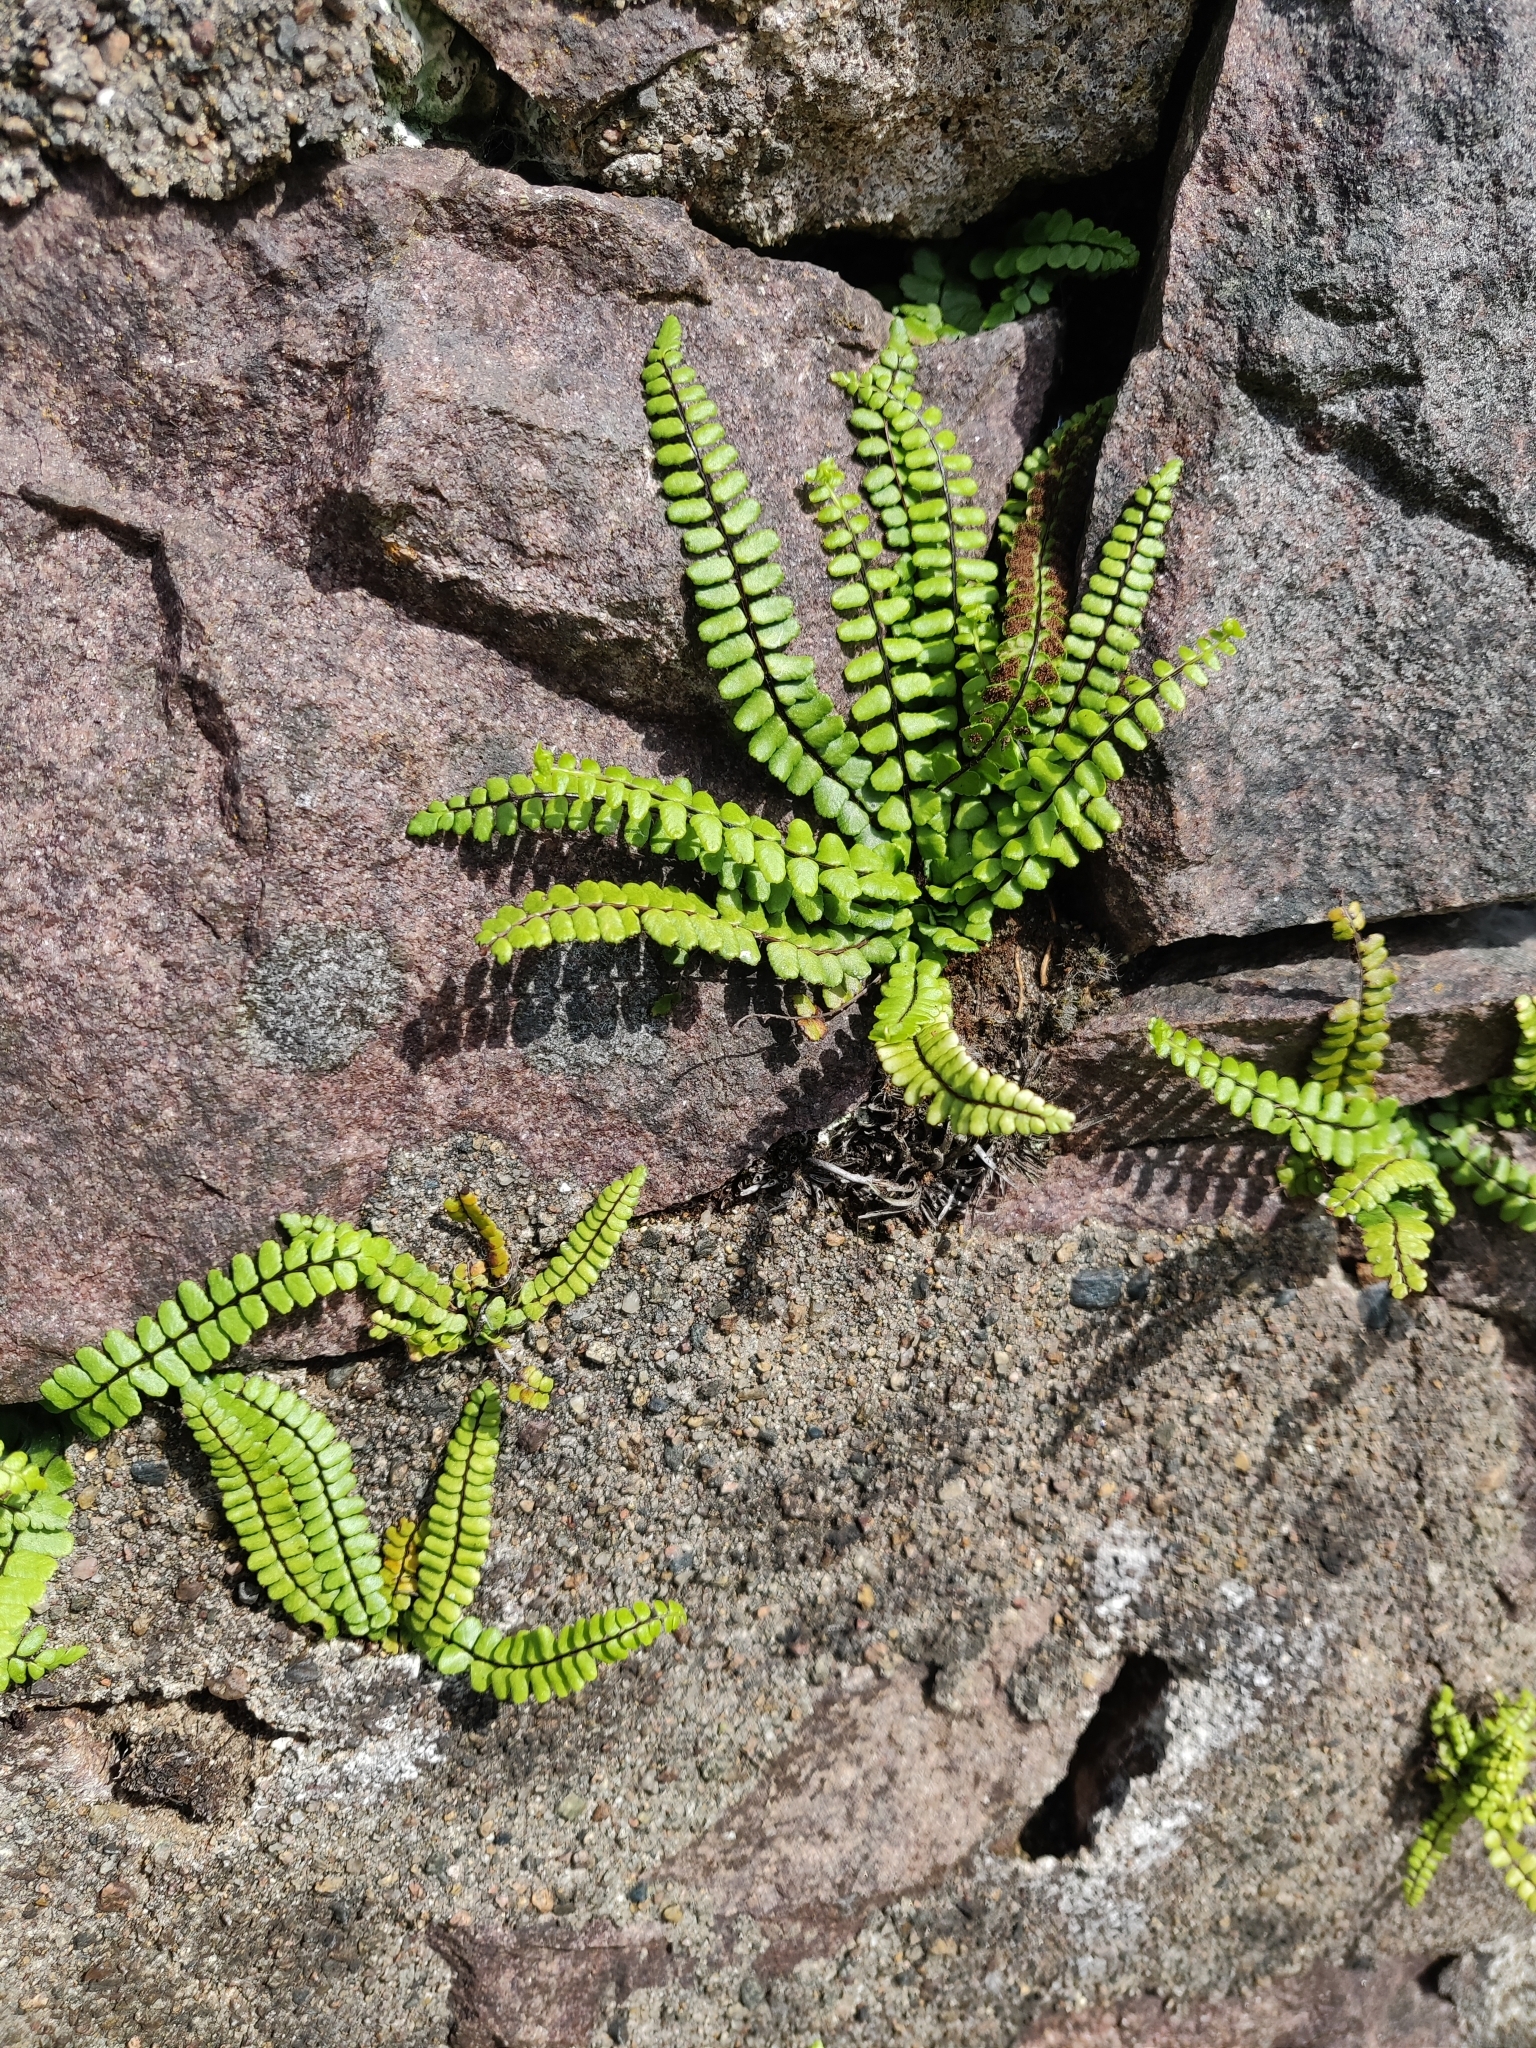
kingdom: Plantae
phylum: Tracheophyta
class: Polypodiopsida
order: Polypodiales
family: Aspleniaceae
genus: Asplenium
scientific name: Asplenium trichomanes
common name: Maidenhair spleenwort
